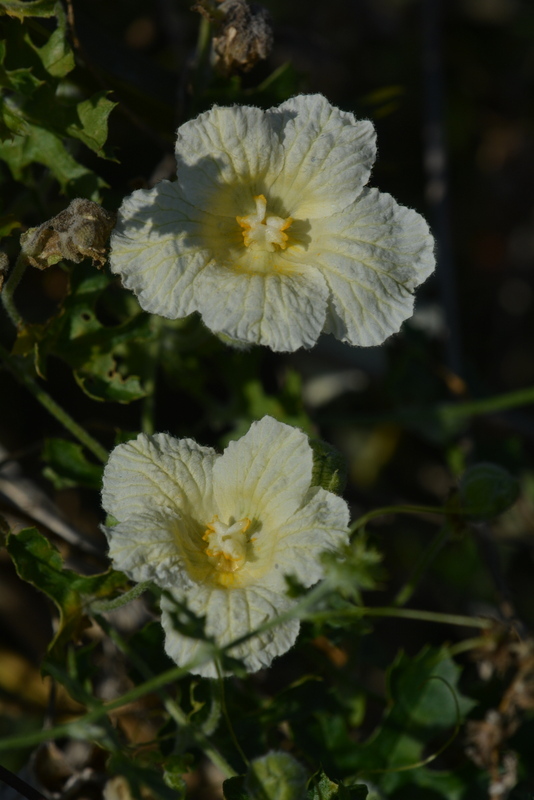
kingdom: Plantae
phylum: Tracheophyta
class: Magnoliopsida
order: Cucurbitales
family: Cucurbitaceae
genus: Momordica
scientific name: Momordica balsamina
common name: Southern balsampear
